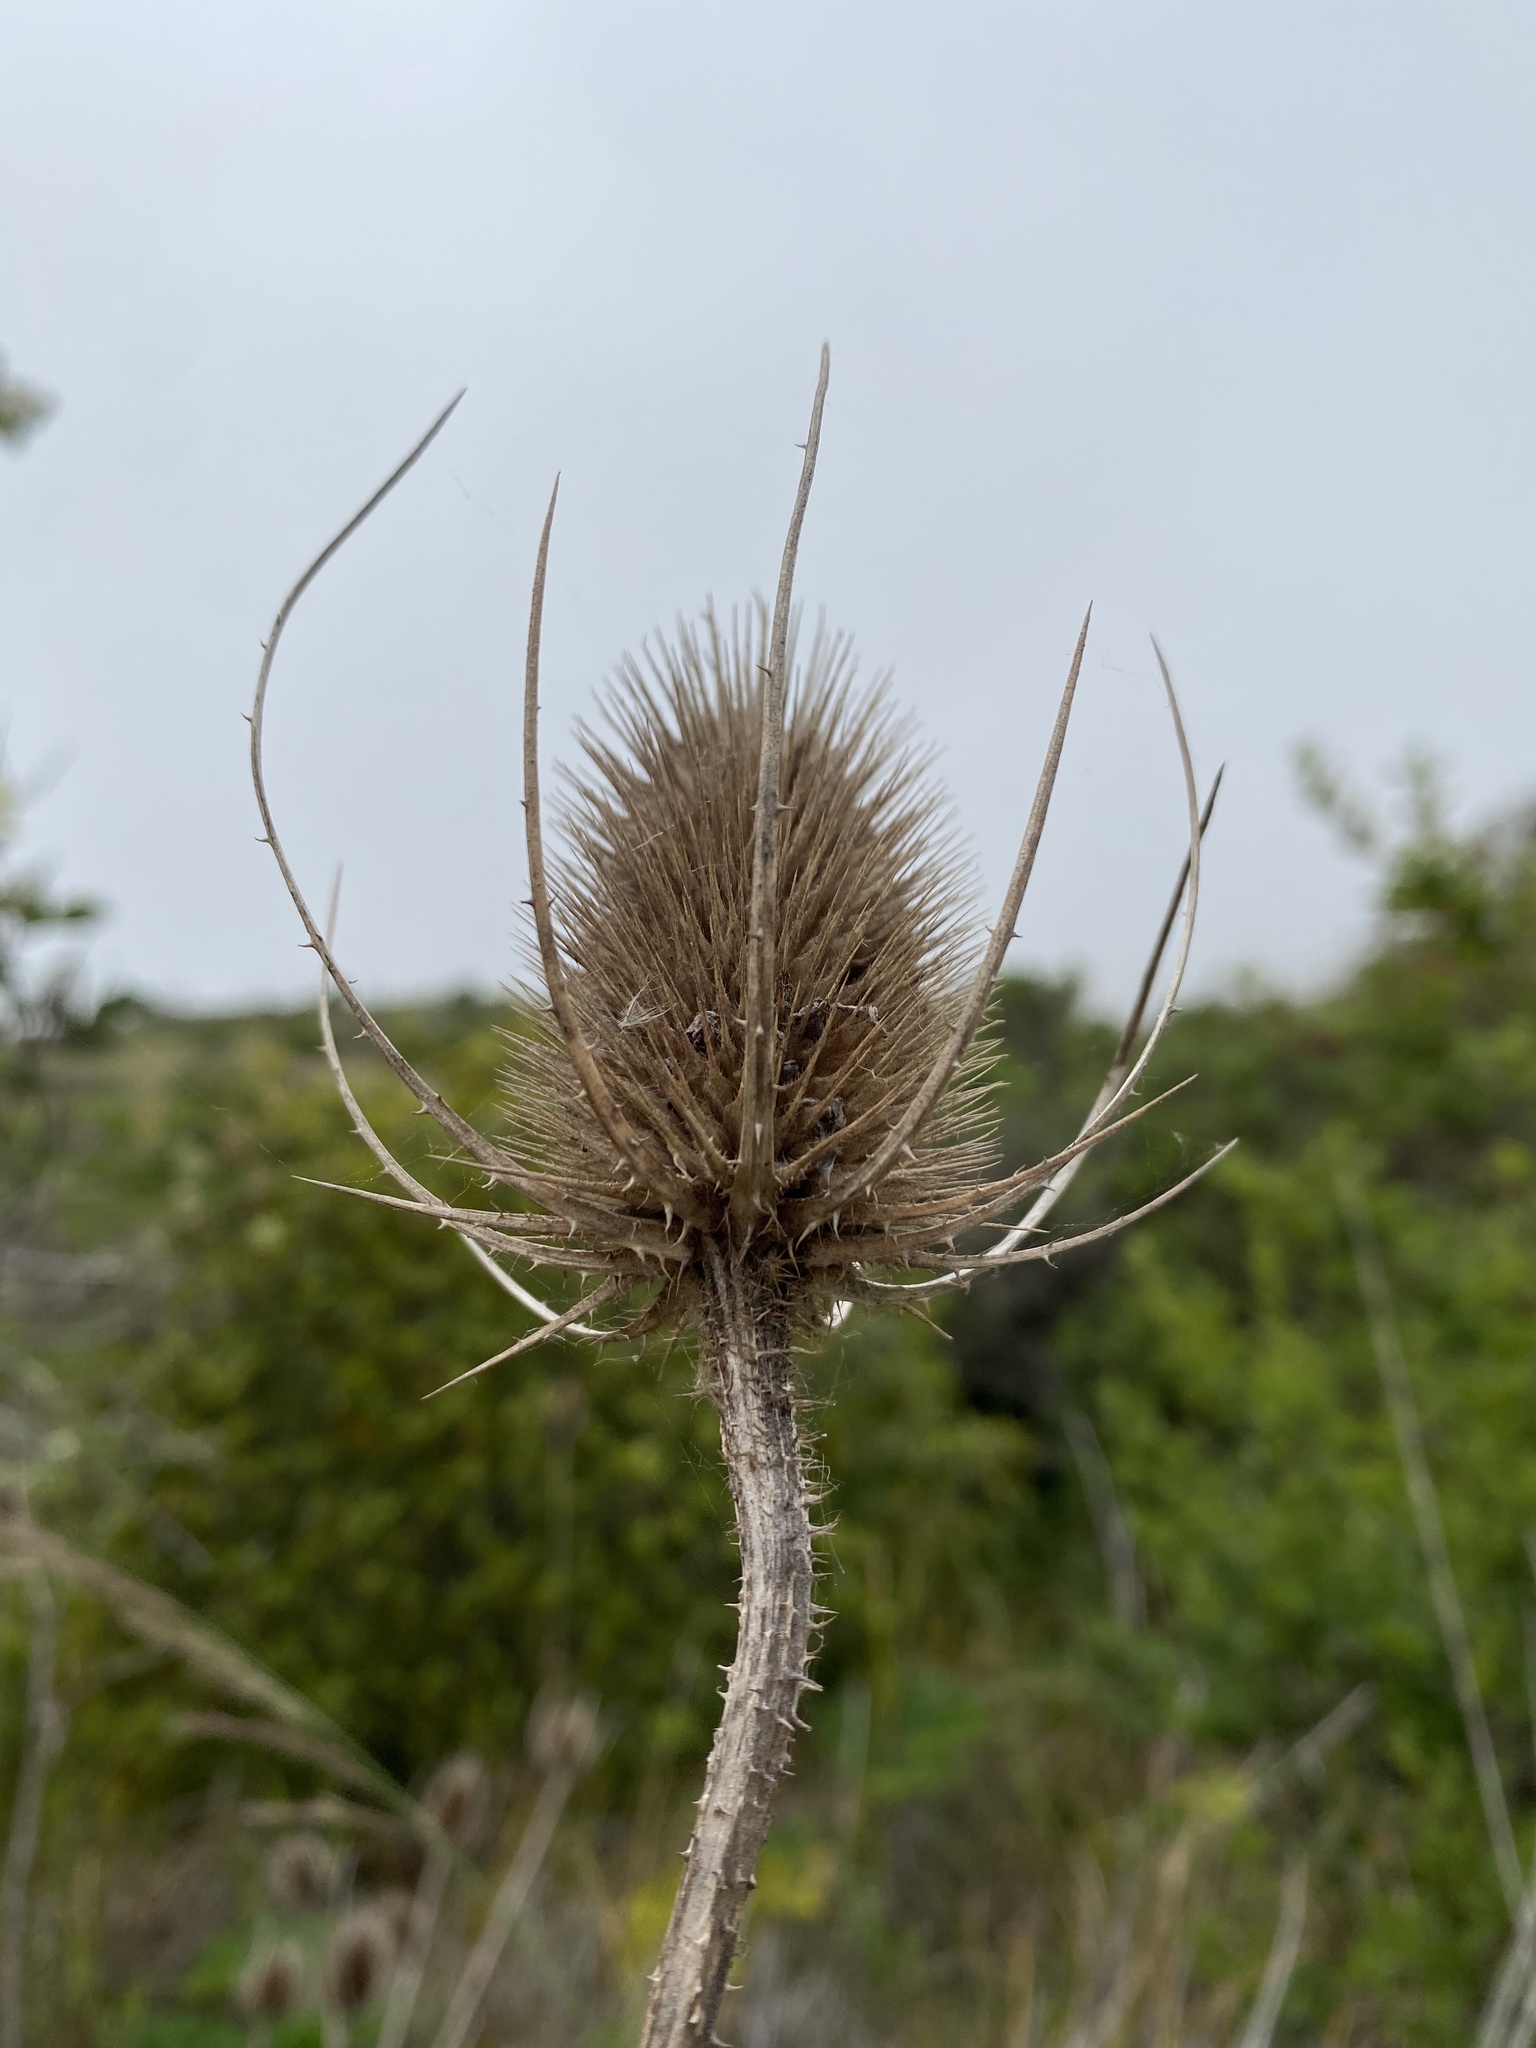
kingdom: Plantae
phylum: Tracheophyta
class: Magnoliopsida
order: Dipsacales
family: Caprifoliaceae
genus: Dipsacus
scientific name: Dipsacus fullonum
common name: Teasel
